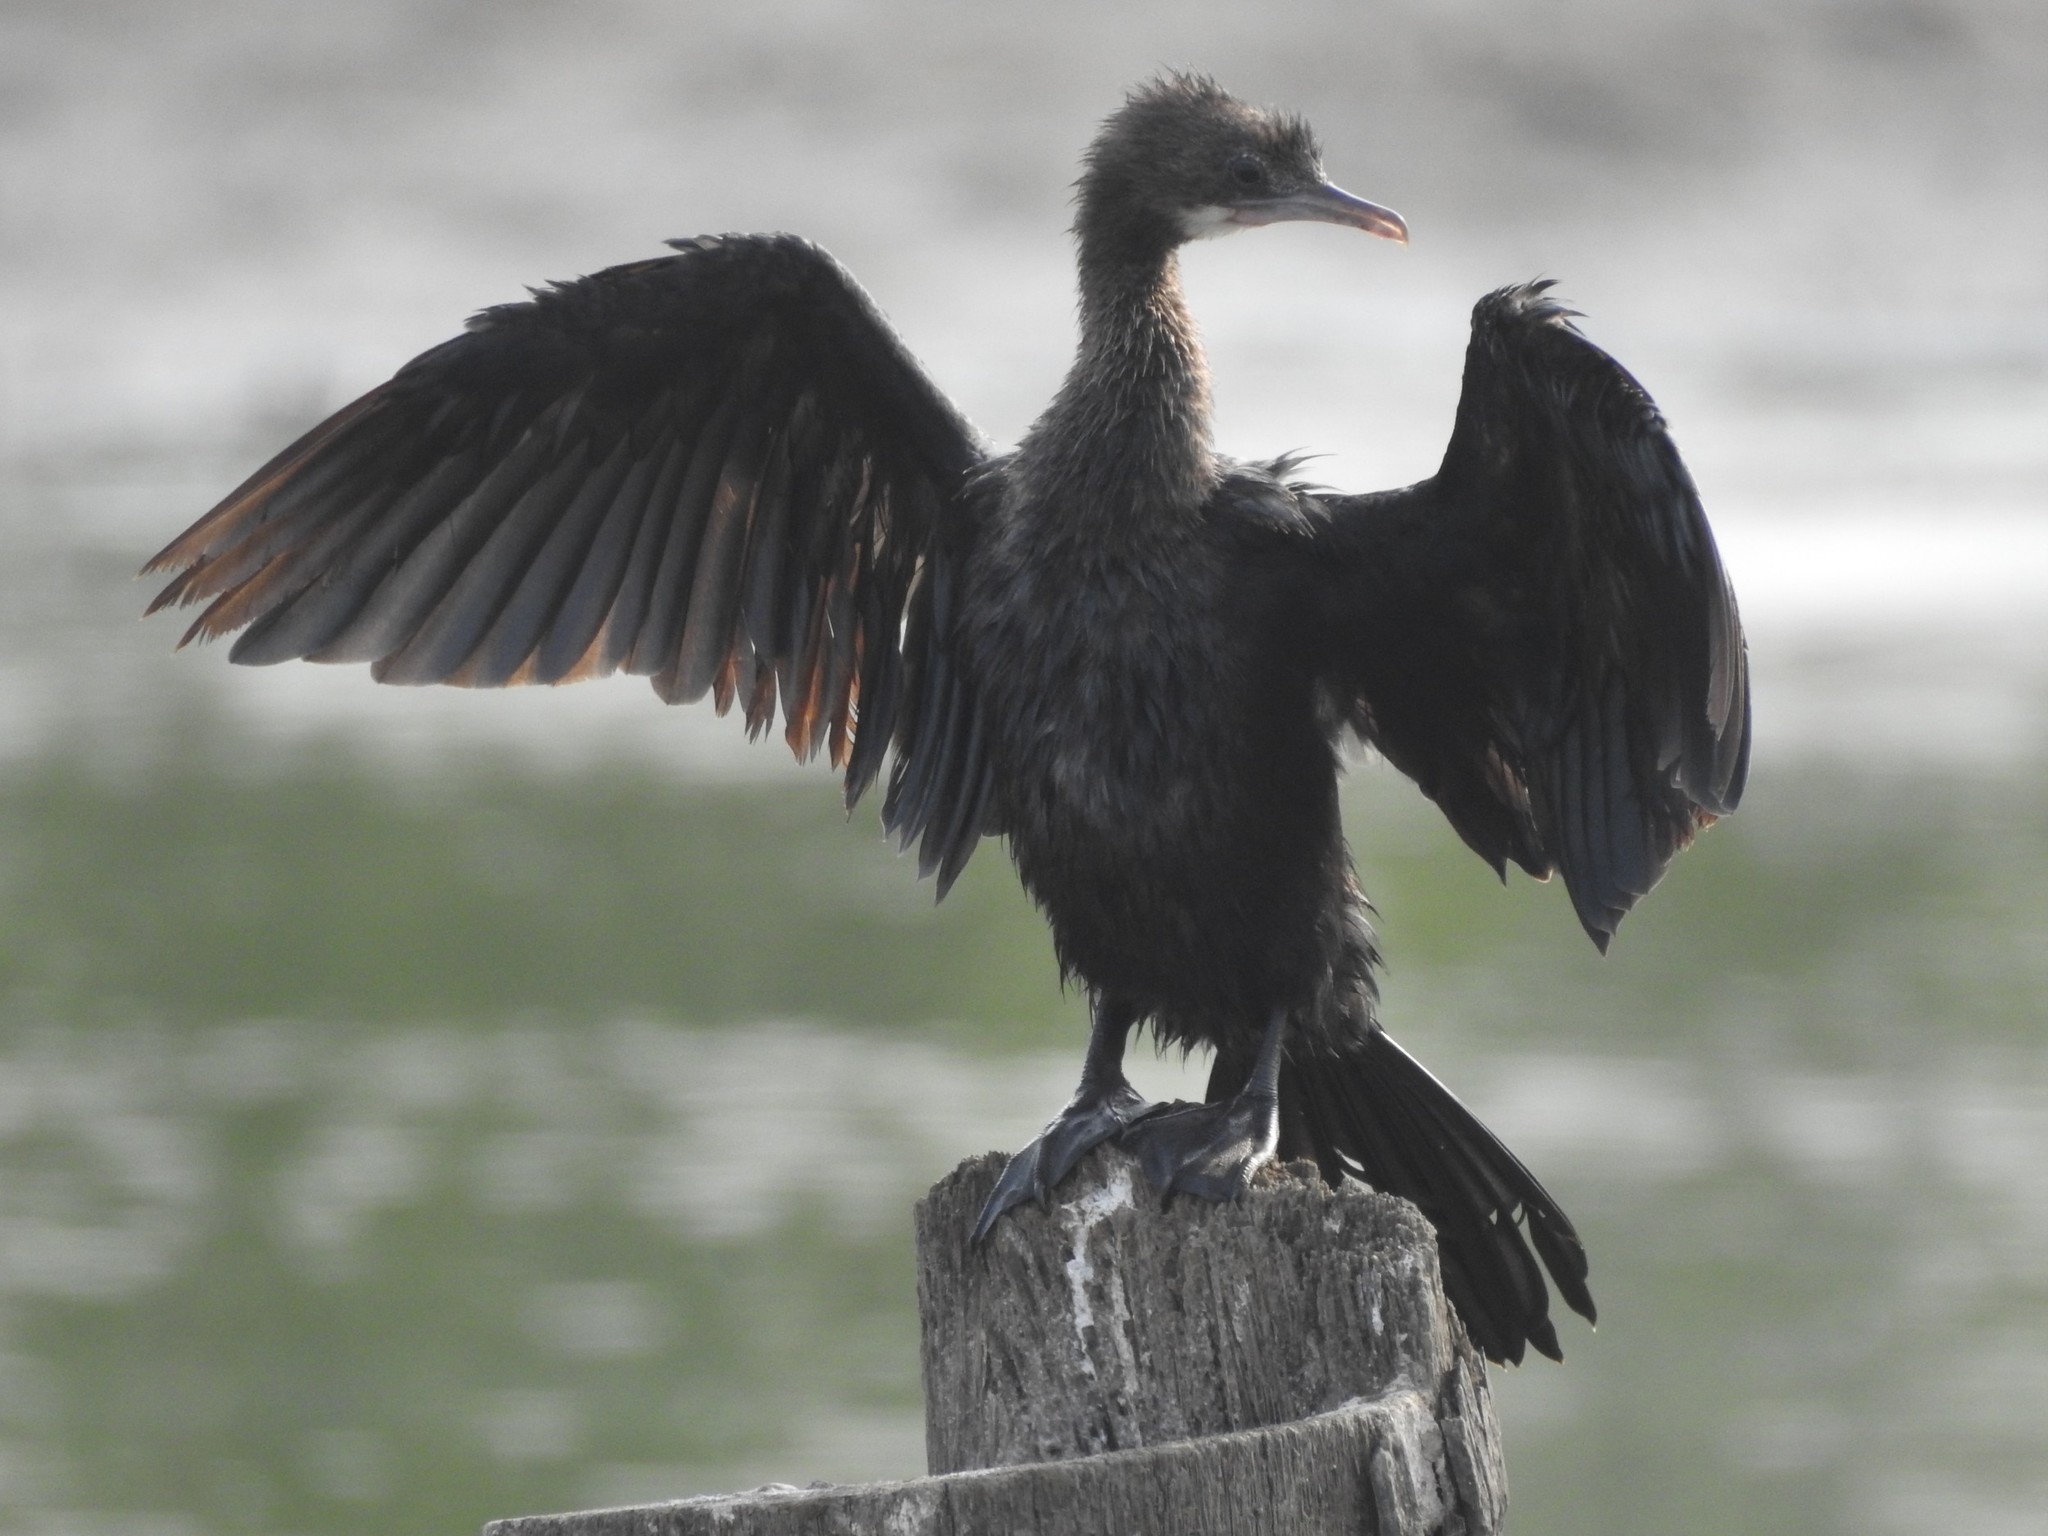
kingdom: Animalia
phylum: Chordata
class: Aves
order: Suliformes
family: Phalacrocoracidae
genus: Microcarbo
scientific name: Microcarbo niger
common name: Little cormorant
